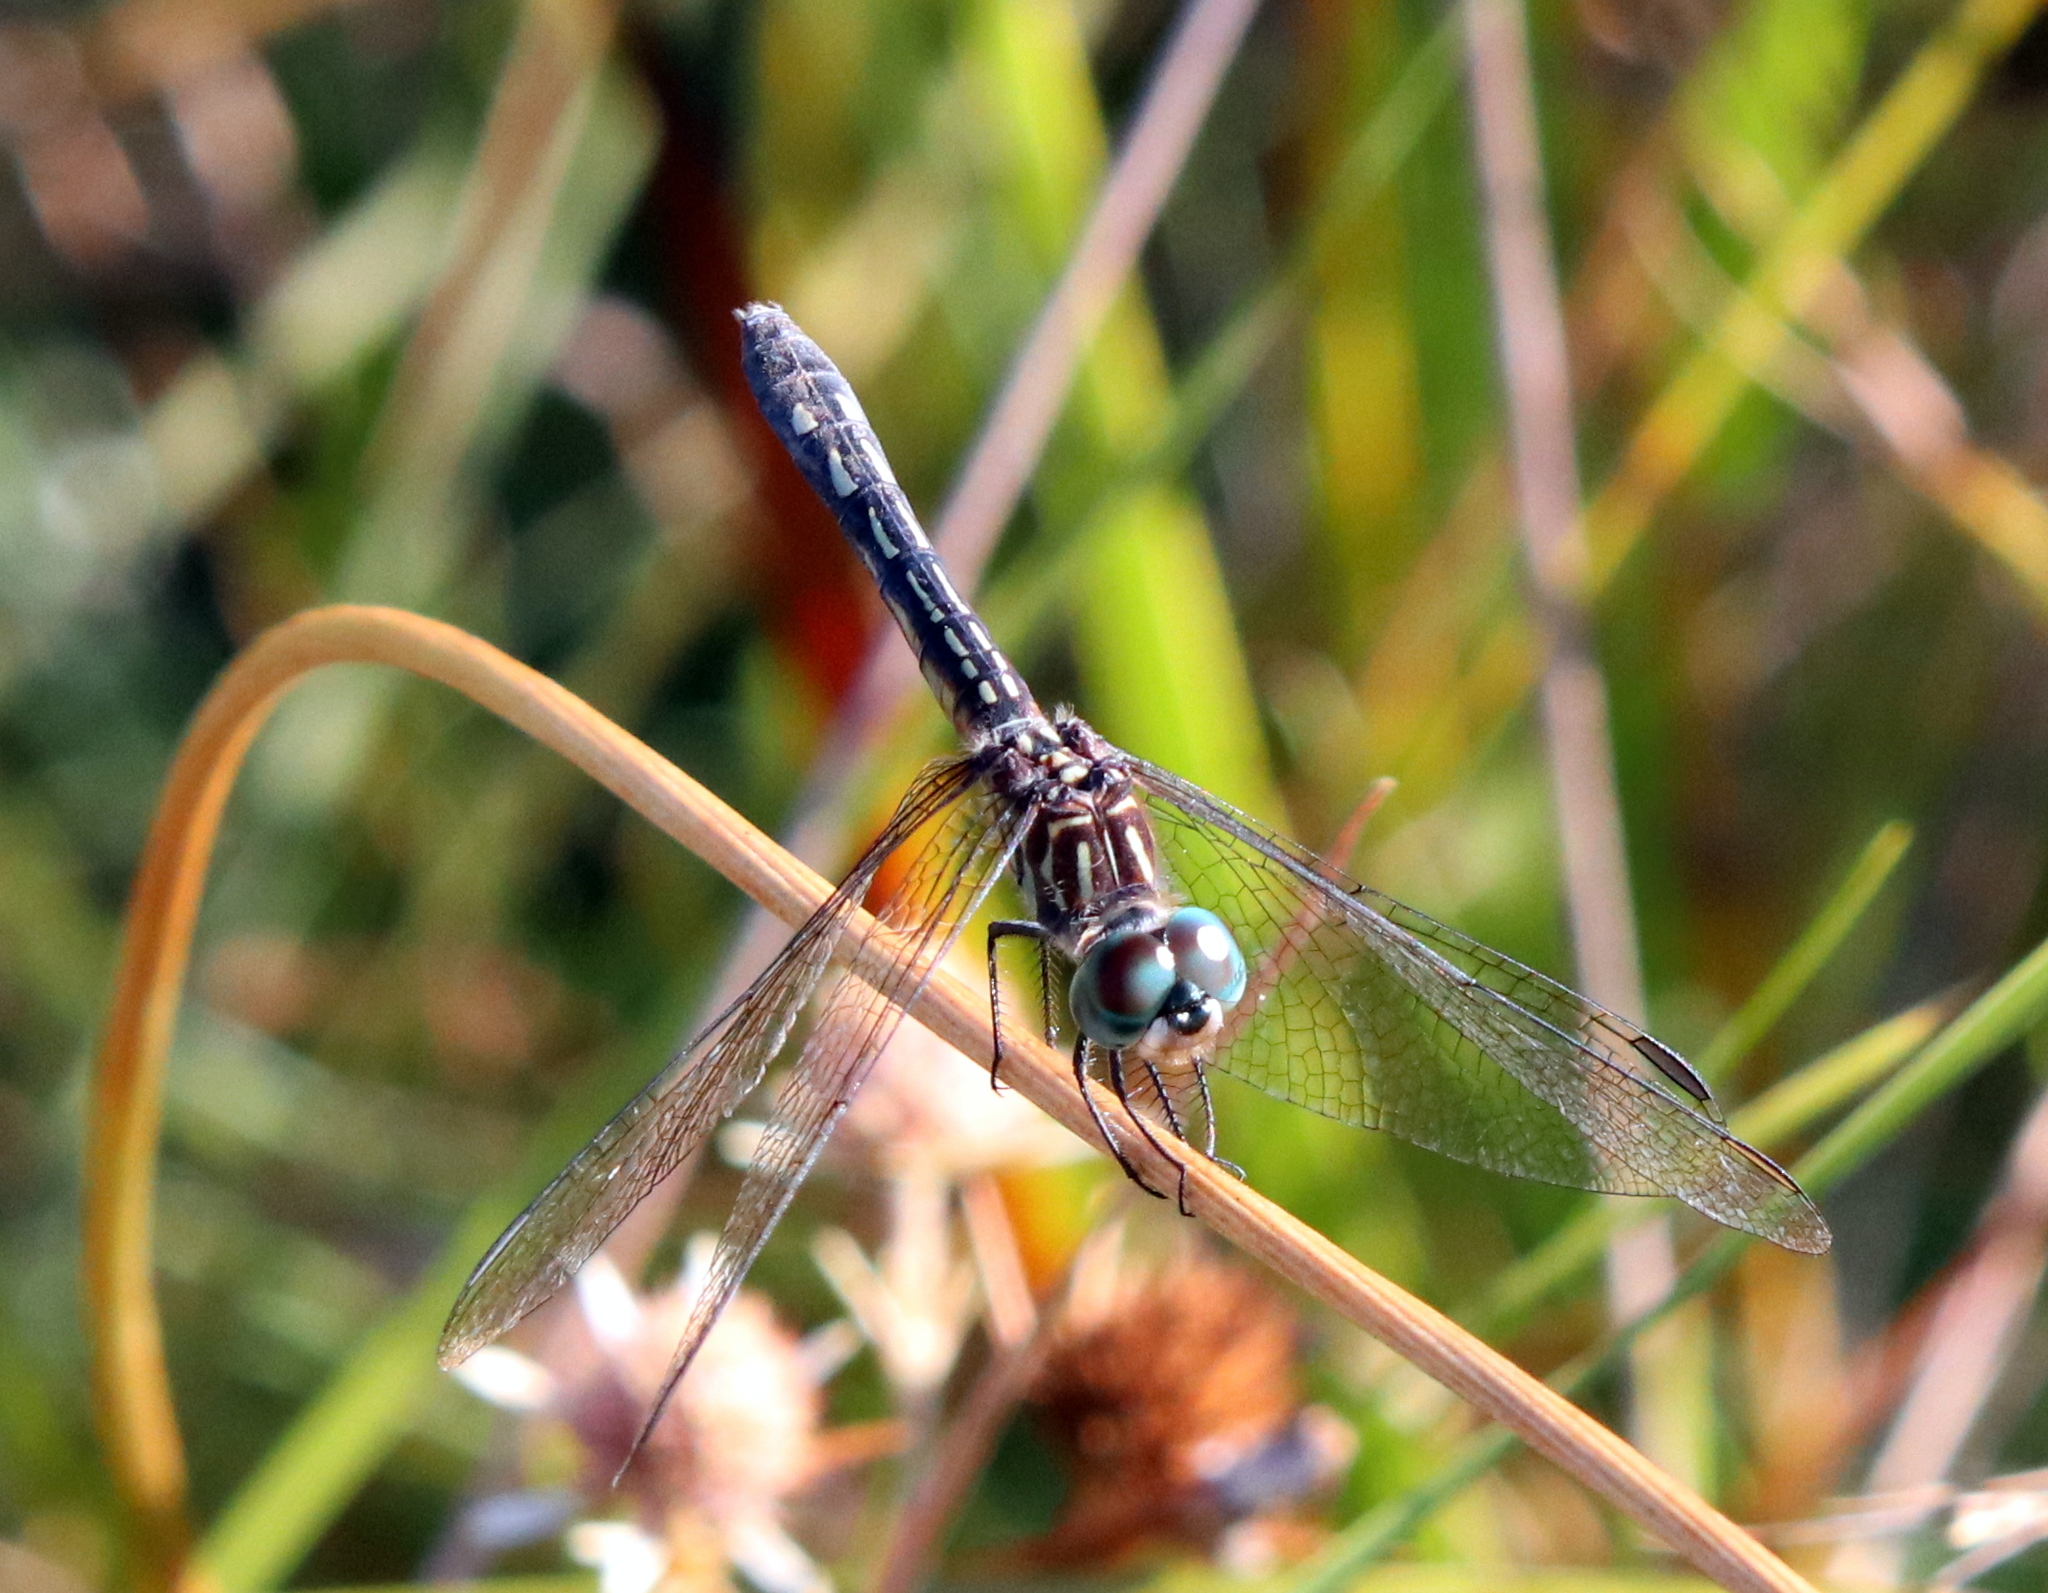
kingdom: Animalia
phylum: Arthropoda
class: Insecta
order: Odonata
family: Libellulidae
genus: Pachydiplax
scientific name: Pachydiplax longipennis
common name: Blue dasher
